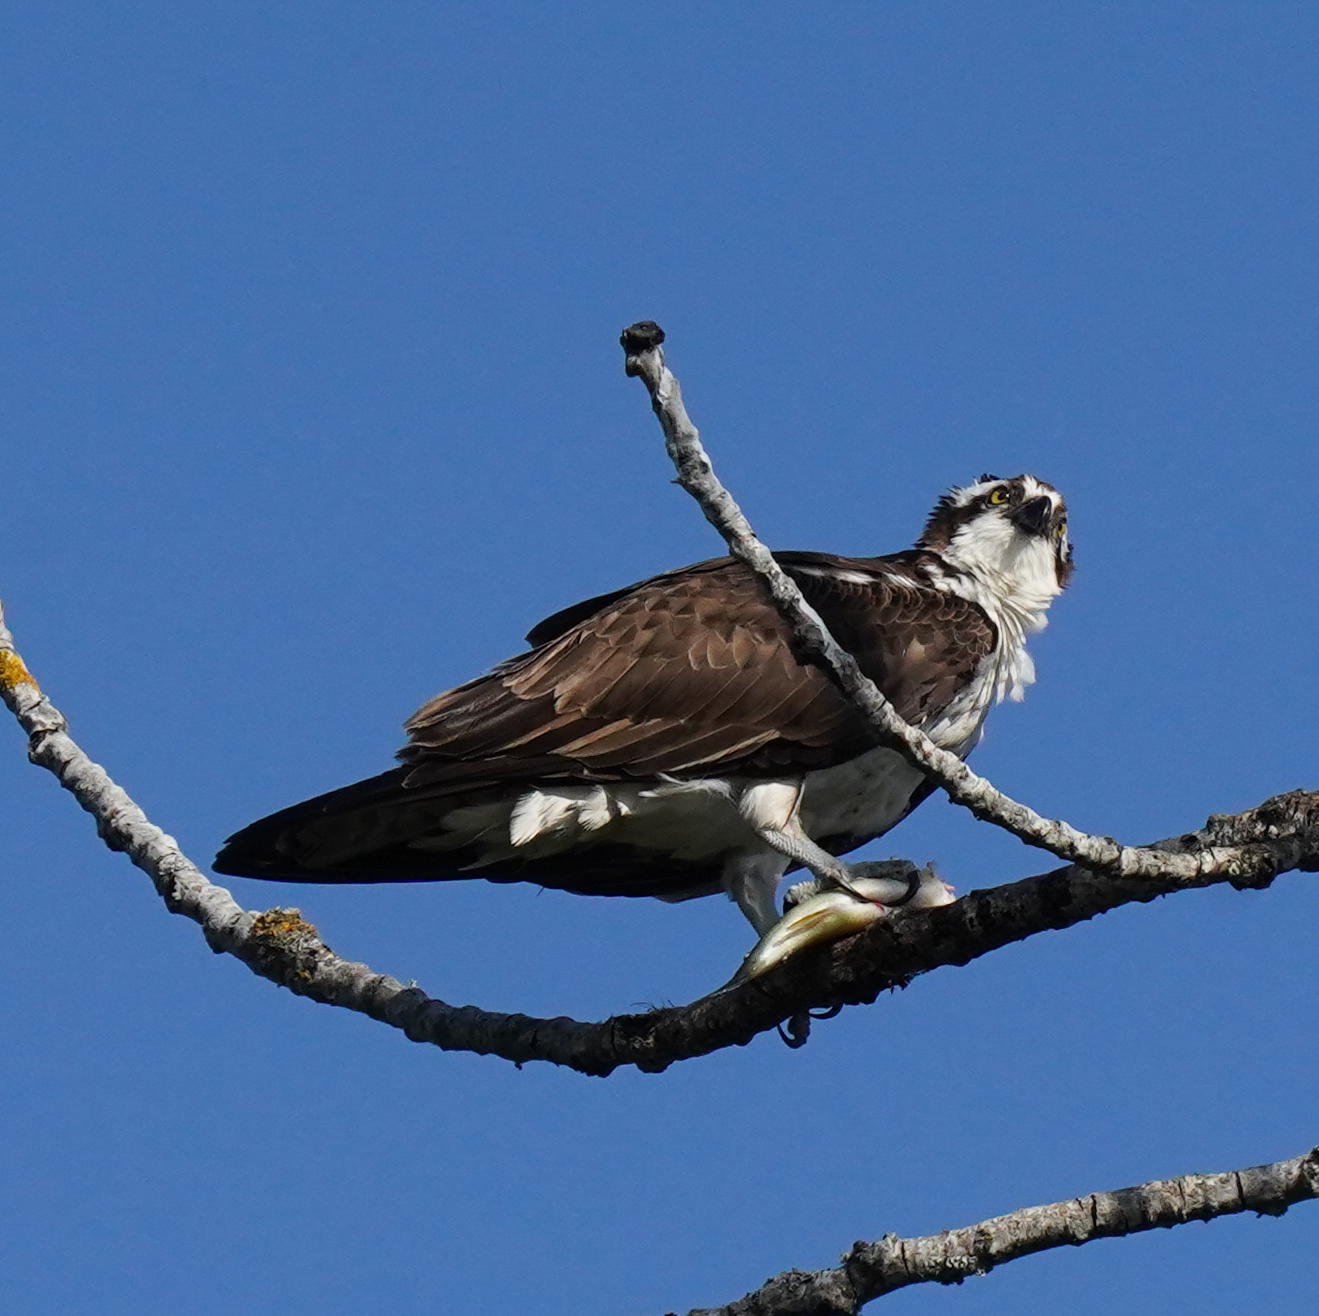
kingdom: Animalia
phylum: Chordata
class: Aves
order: Accipitriformes
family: Pandionidae
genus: Pandion
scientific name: Pandion haliaetus
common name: Osprey
